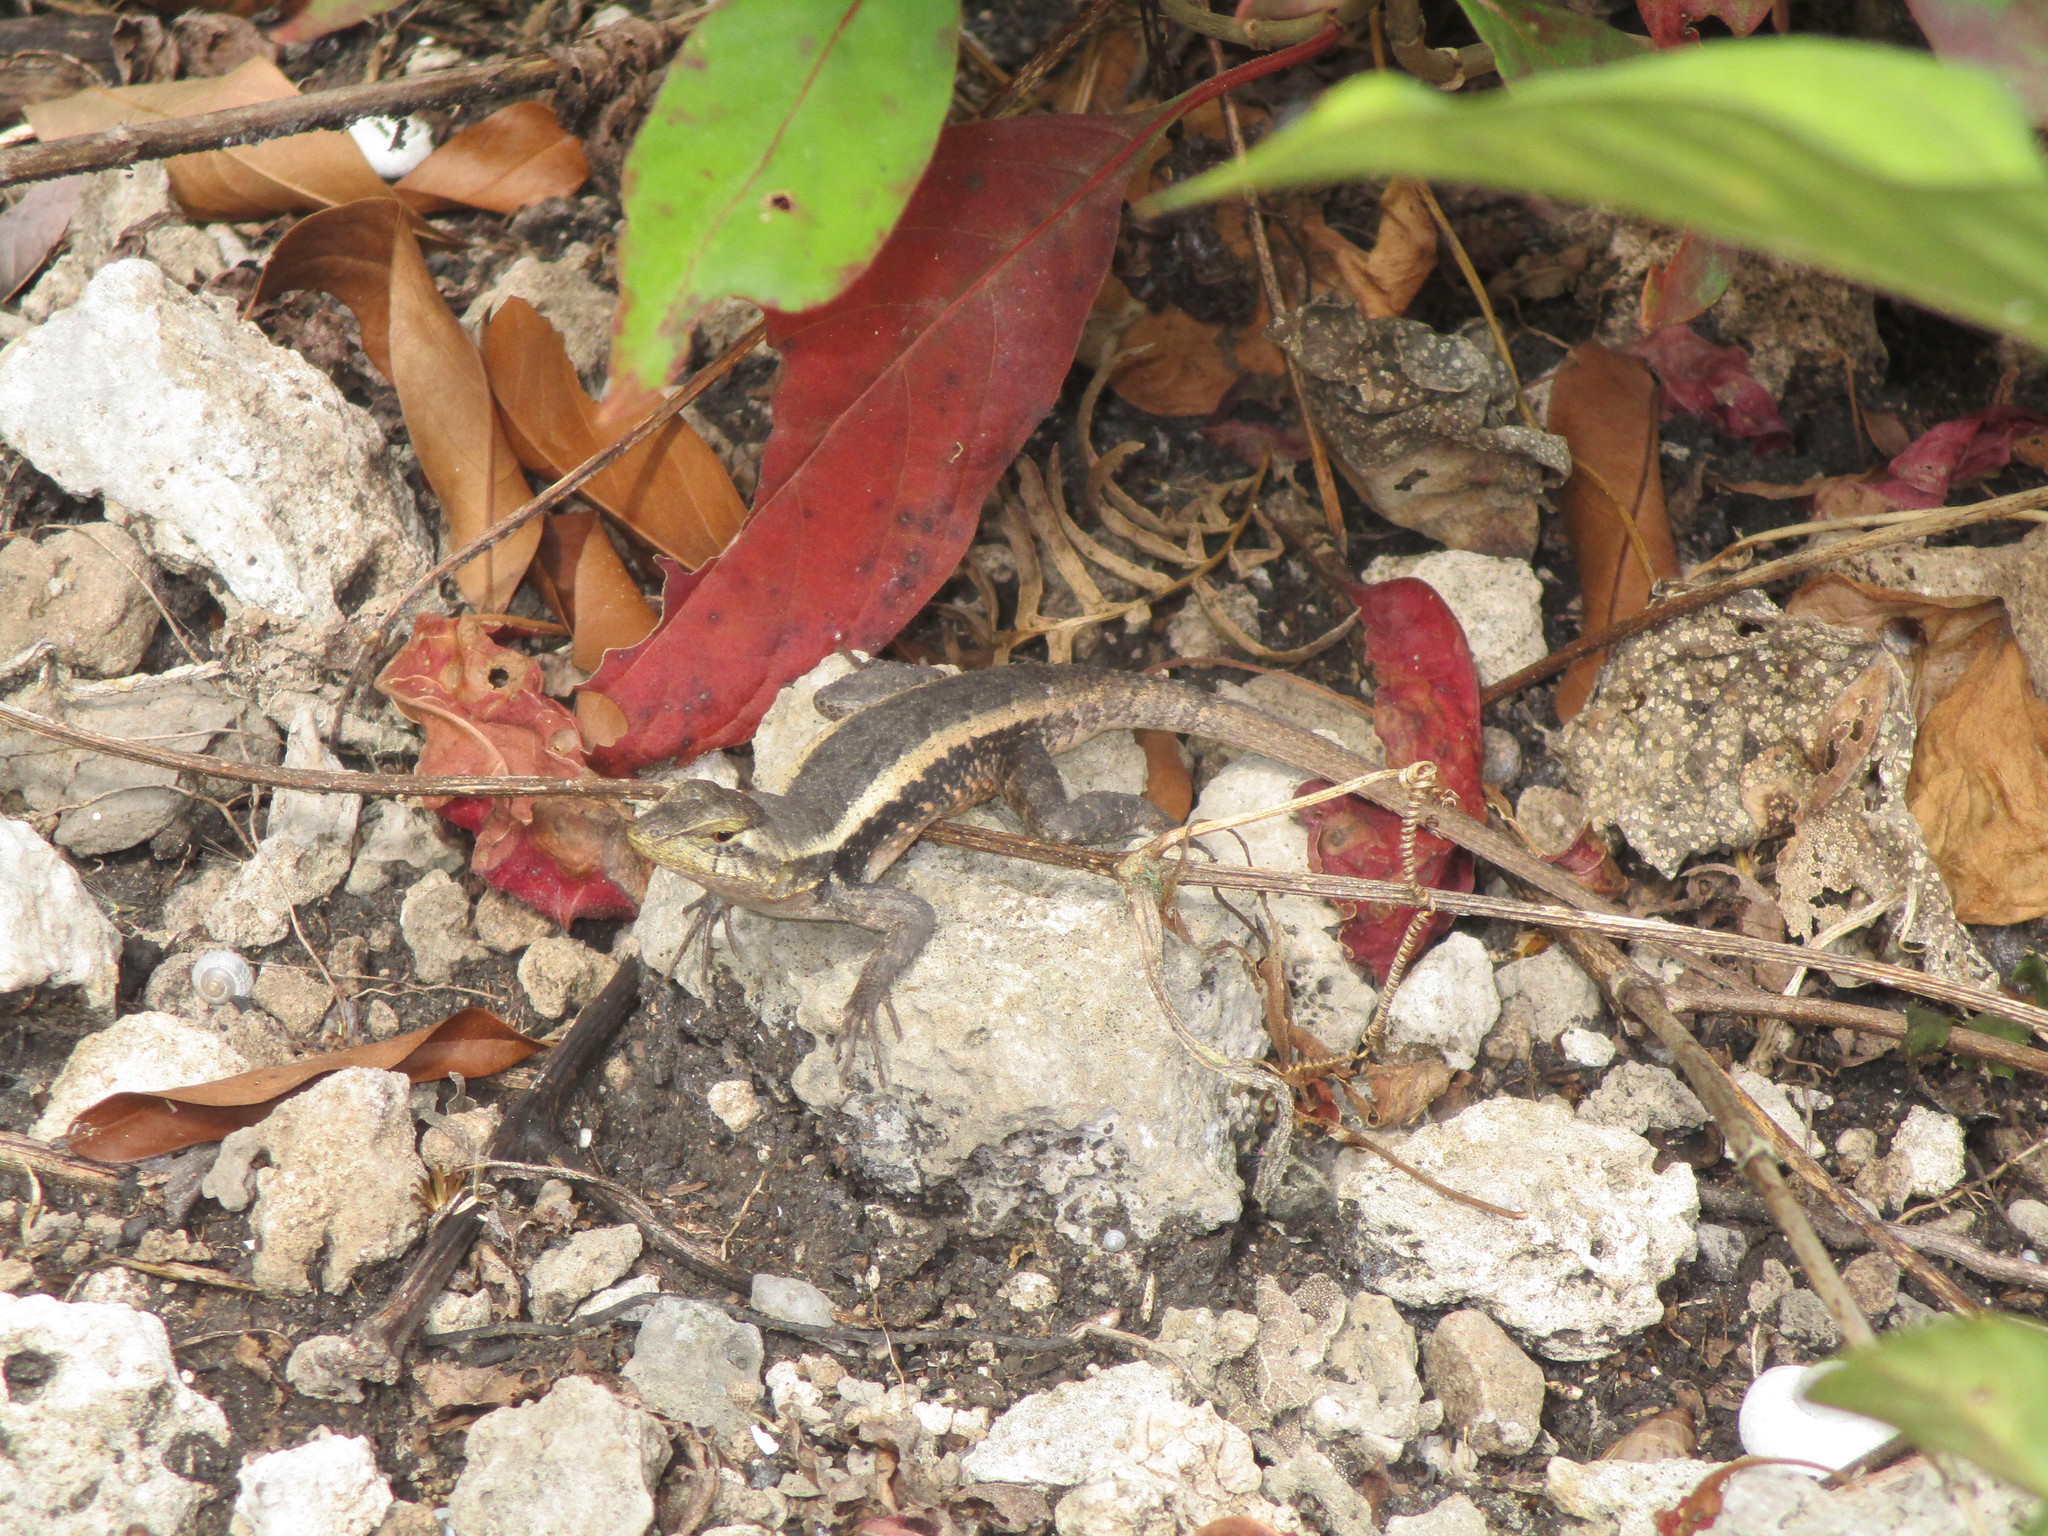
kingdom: Animalia
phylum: Chordata
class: Squamata
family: Phrynosomatidae
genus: Sceloporus
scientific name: Sceloporus chrysostictus
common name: Yellow-spotted spiny lizard
